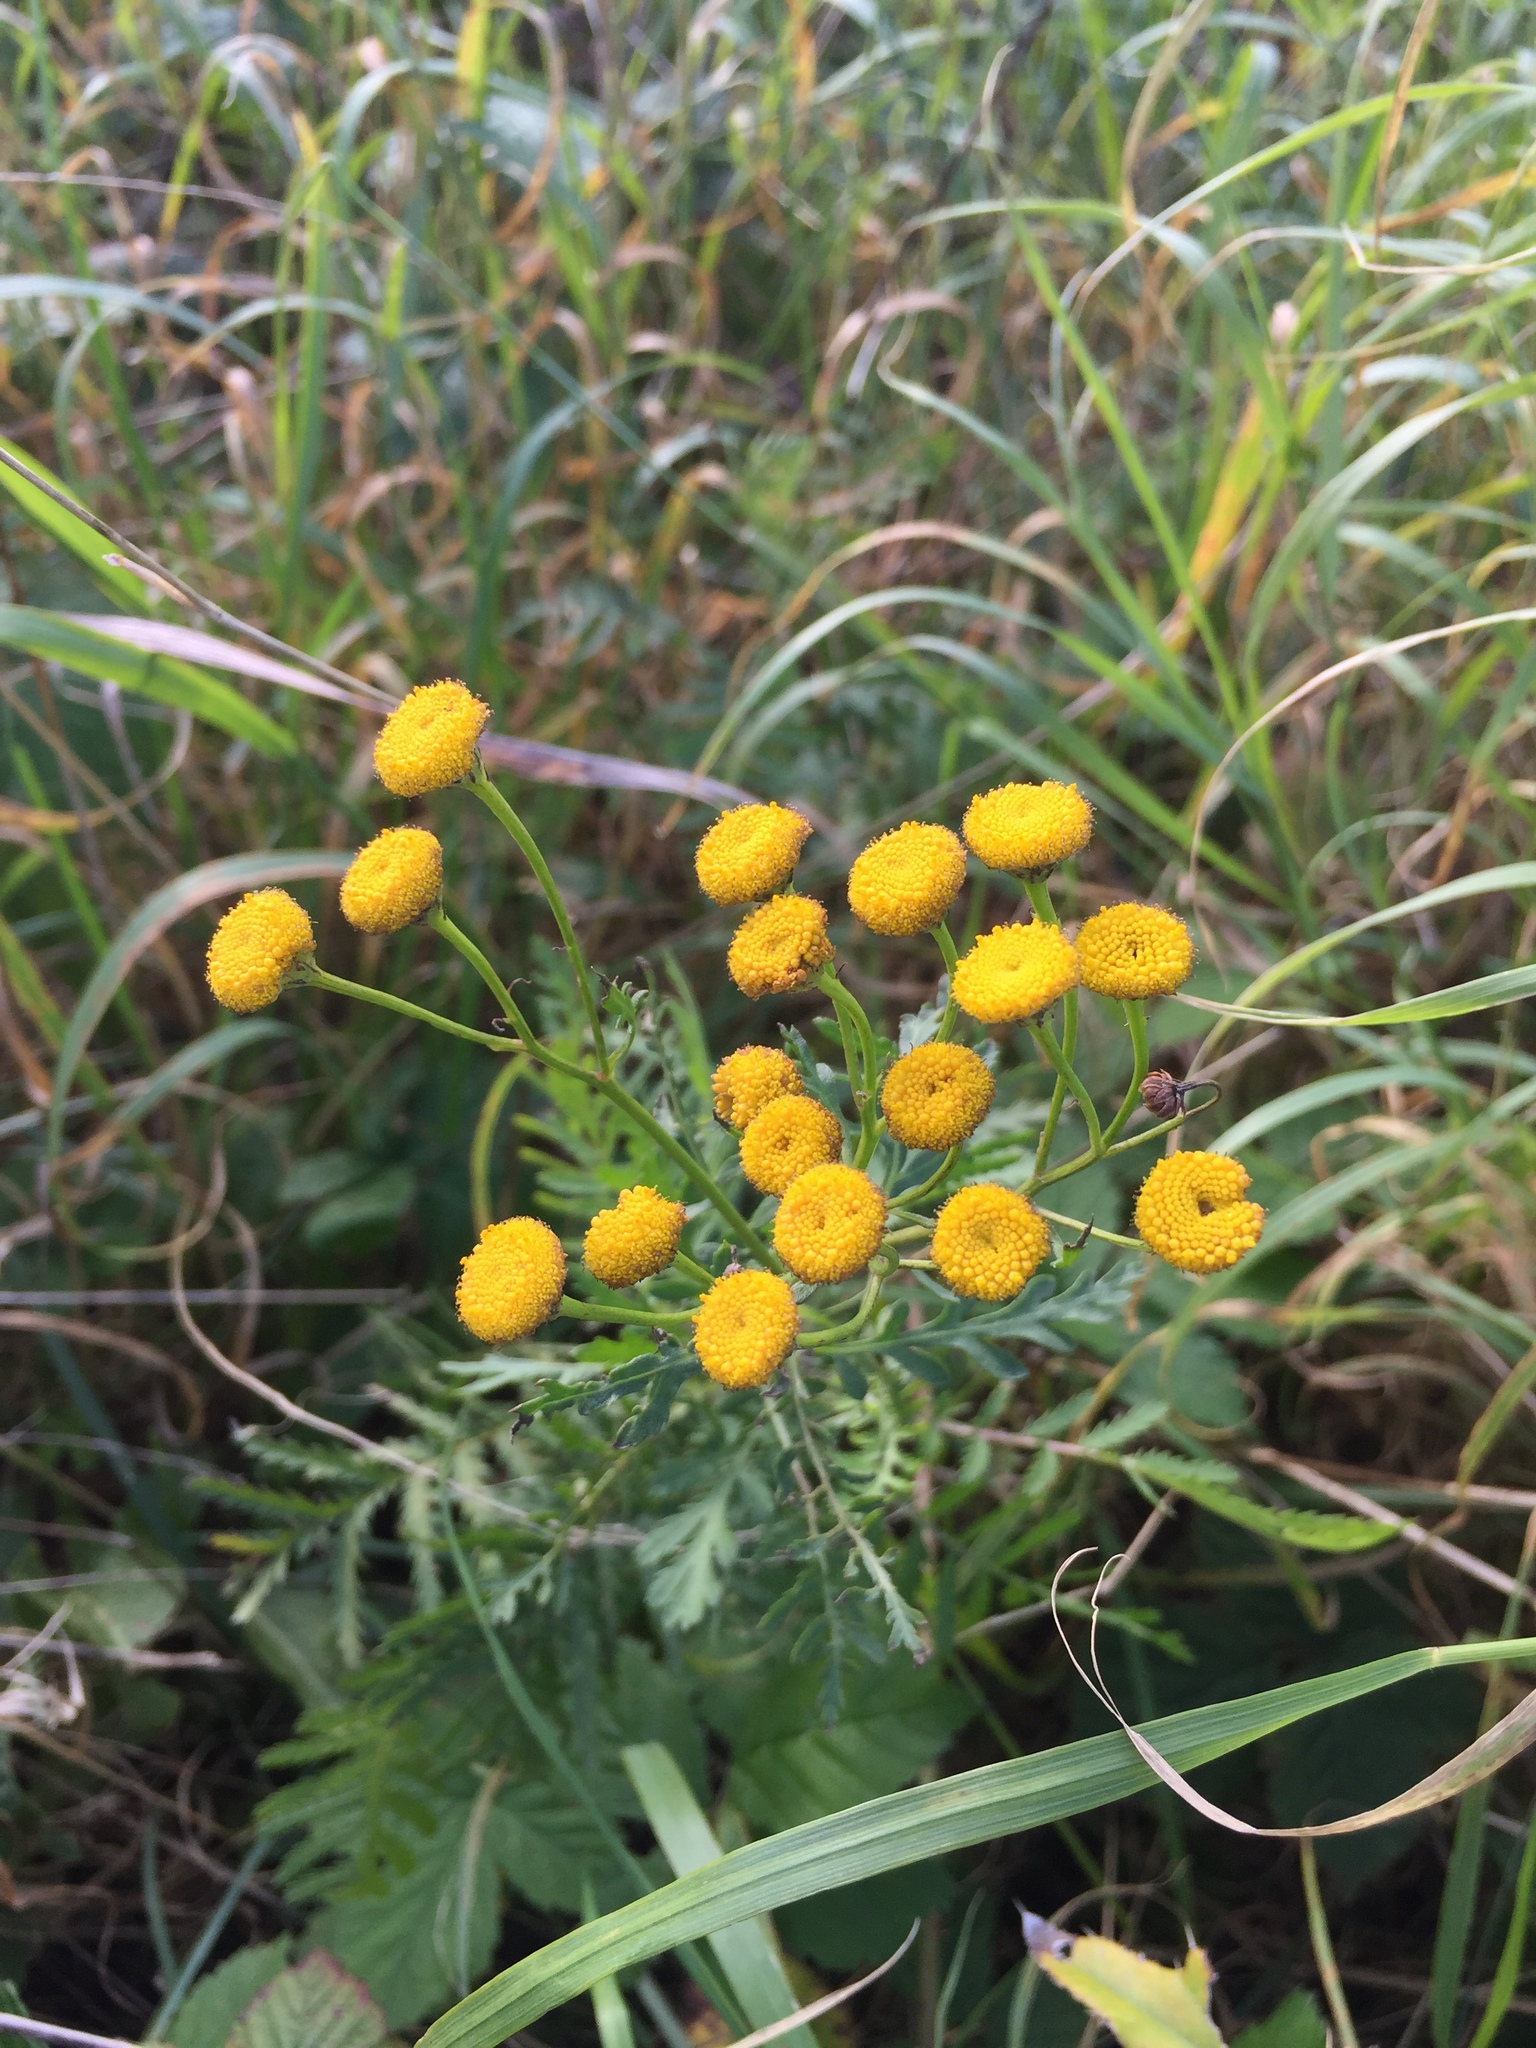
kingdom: Plantae
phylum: Tracheophyta
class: Magnoliopsida
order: Asterales
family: Asteraceae
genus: Tanacetum
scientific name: Tanacetum vulgare
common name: Common tansy
